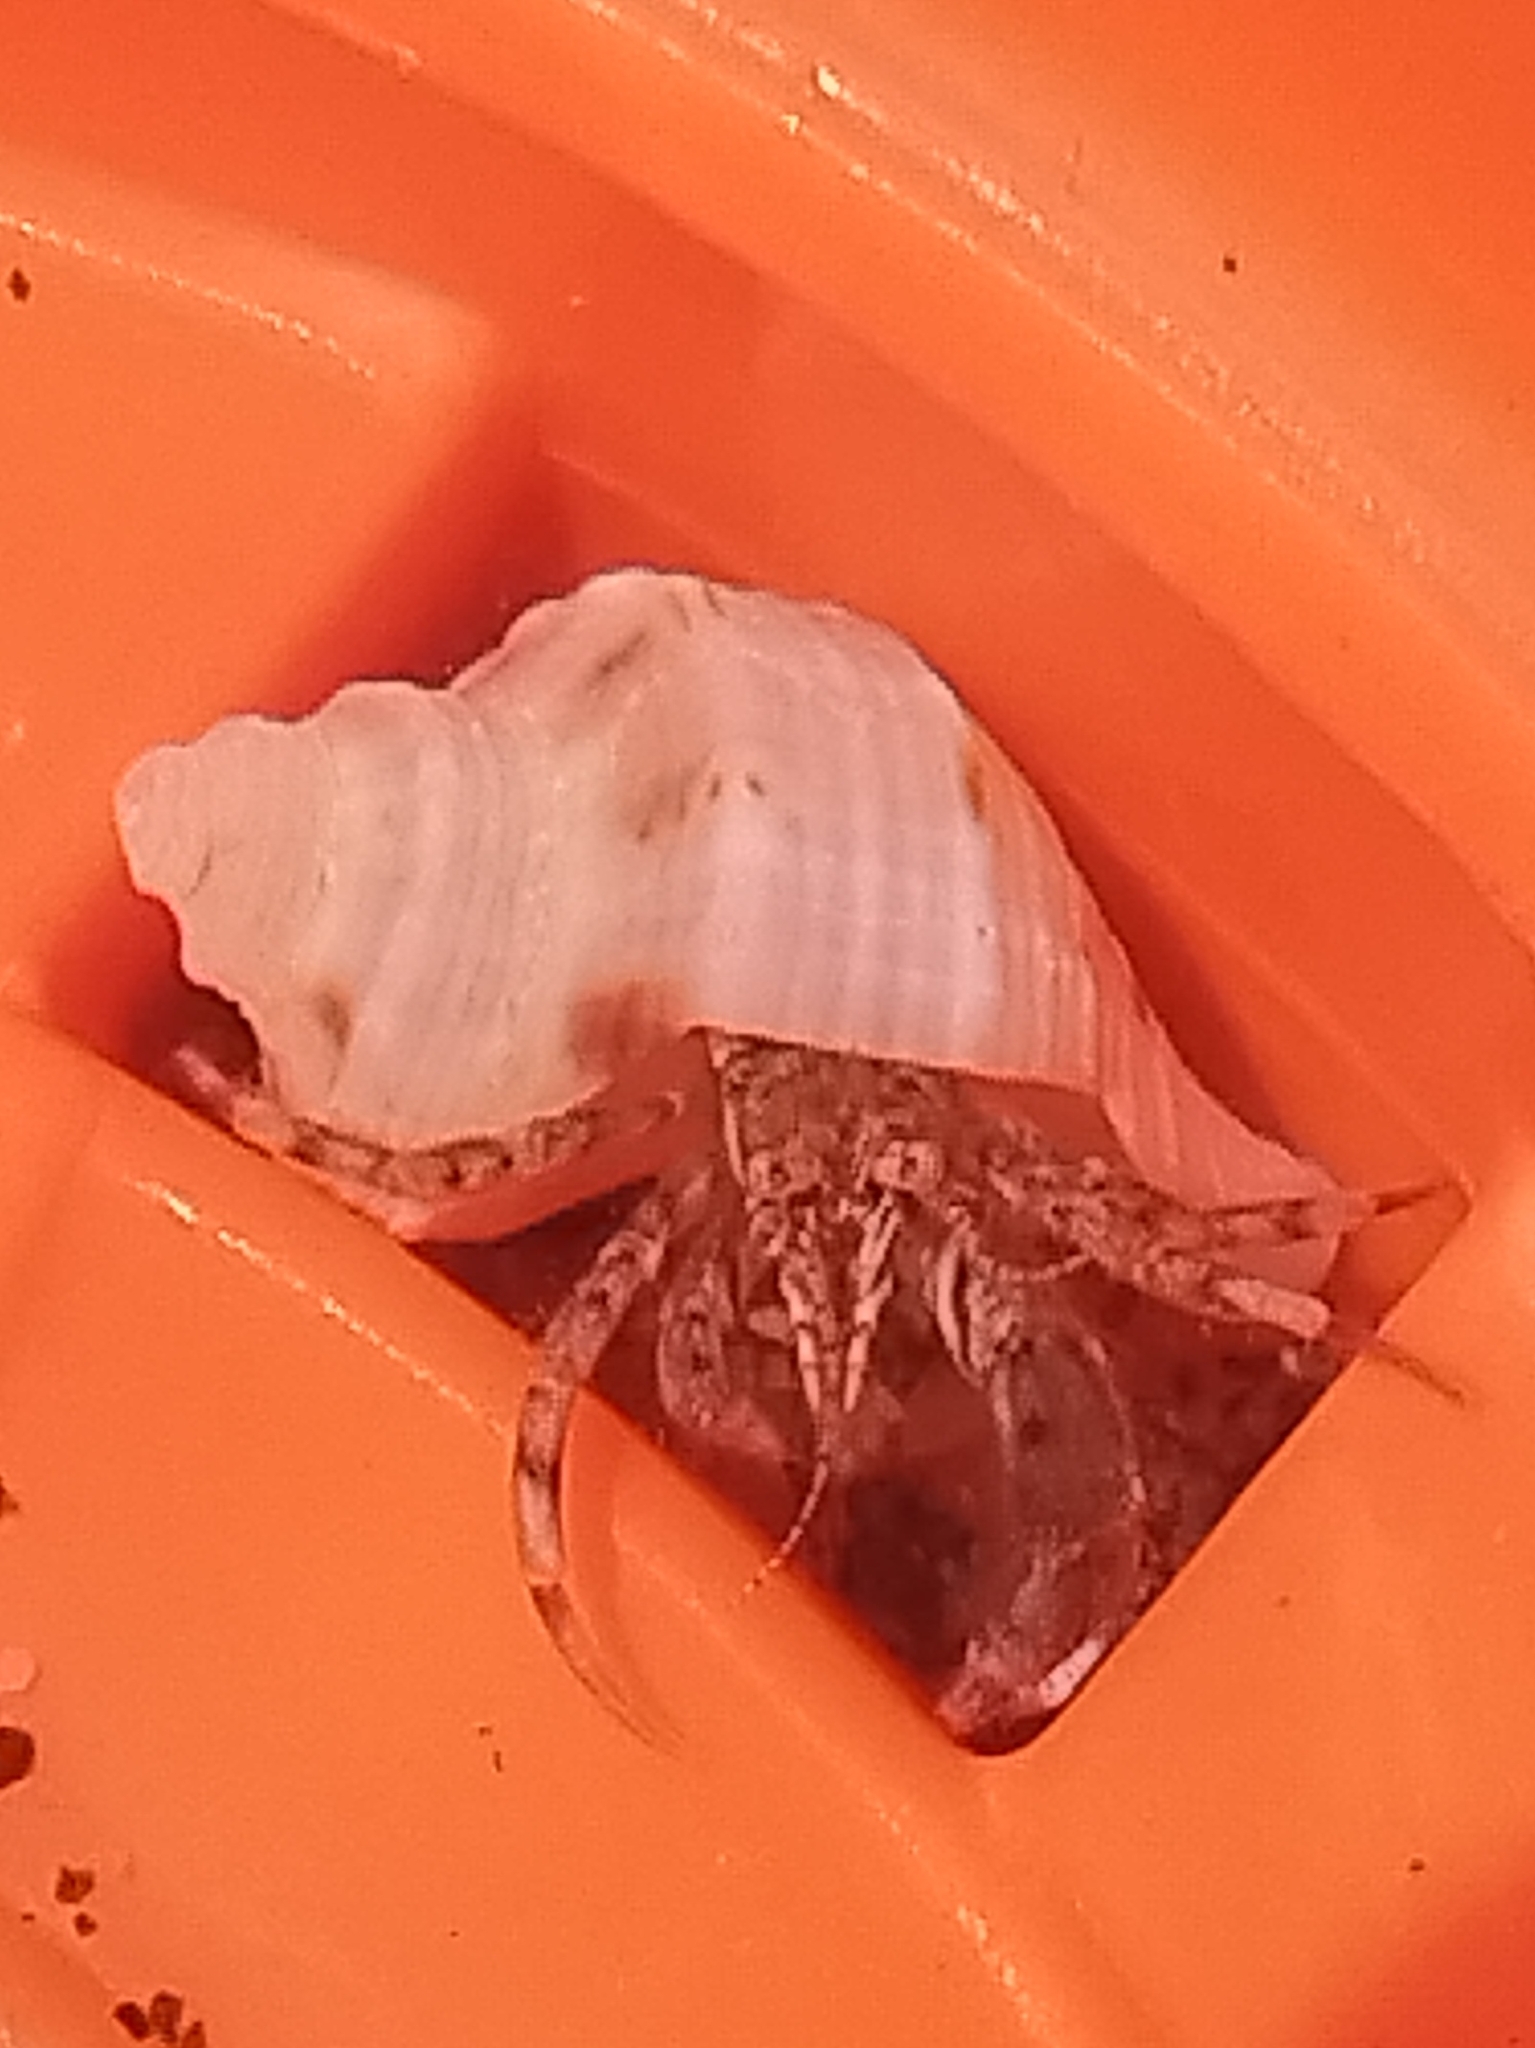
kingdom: Animalia
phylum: Arthropoda
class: Malacostraca
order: Decapoda
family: Diogenidae
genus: Diogenes
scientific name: Diogenes pugilator
